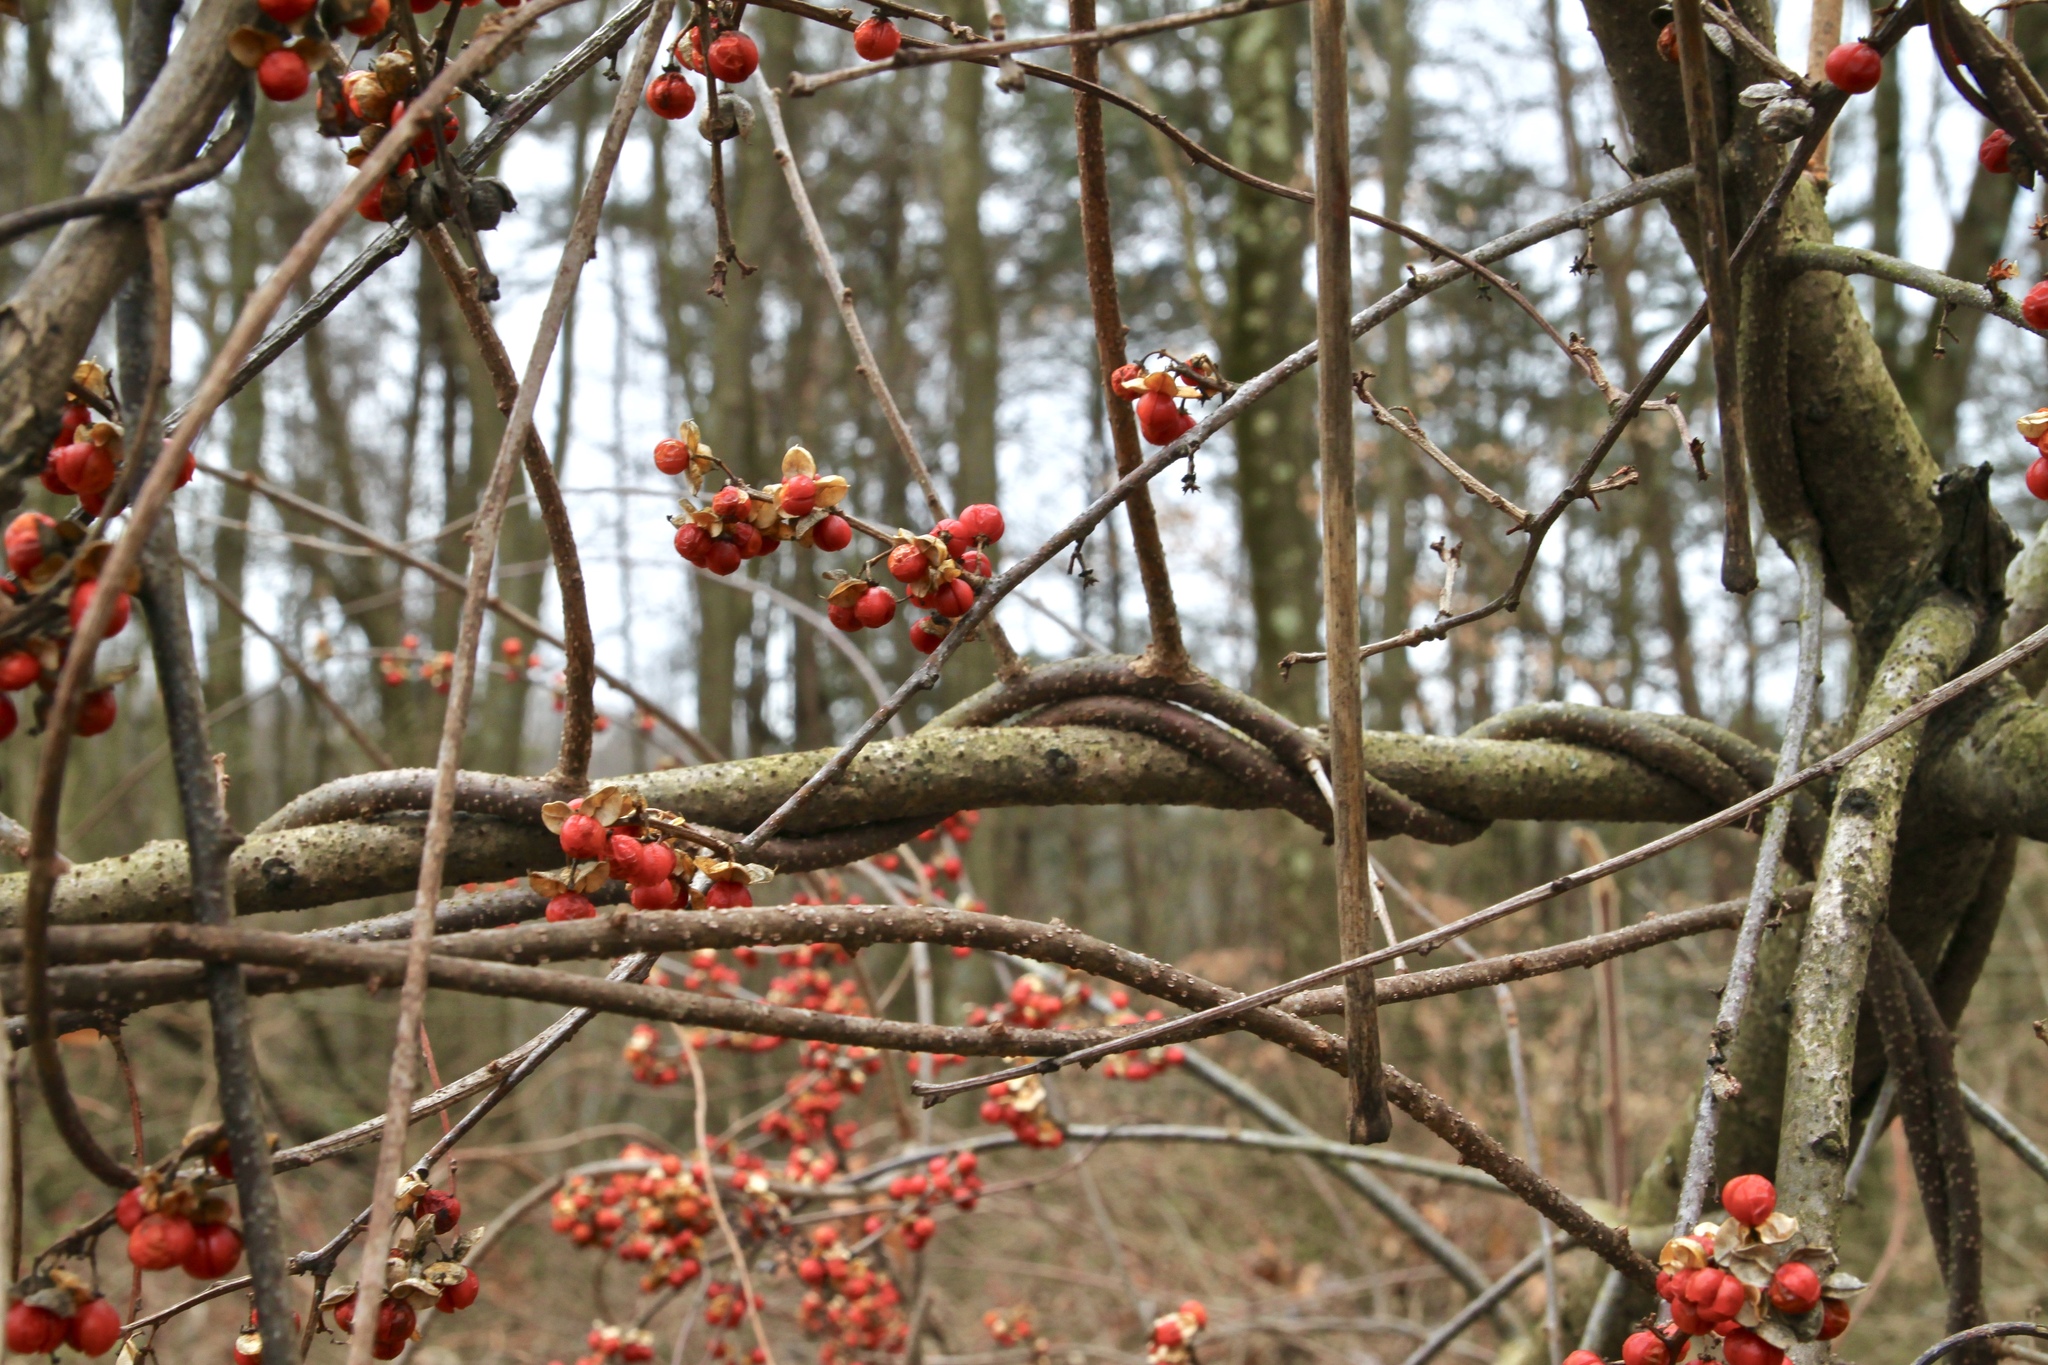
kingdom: Plantae
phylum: Tracheophyta
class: Magnoliopsida
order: Celastrales
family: Celastraceae
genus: Celastrus
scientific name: Celastrus orbiculatus
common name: Oriental bittersweet
